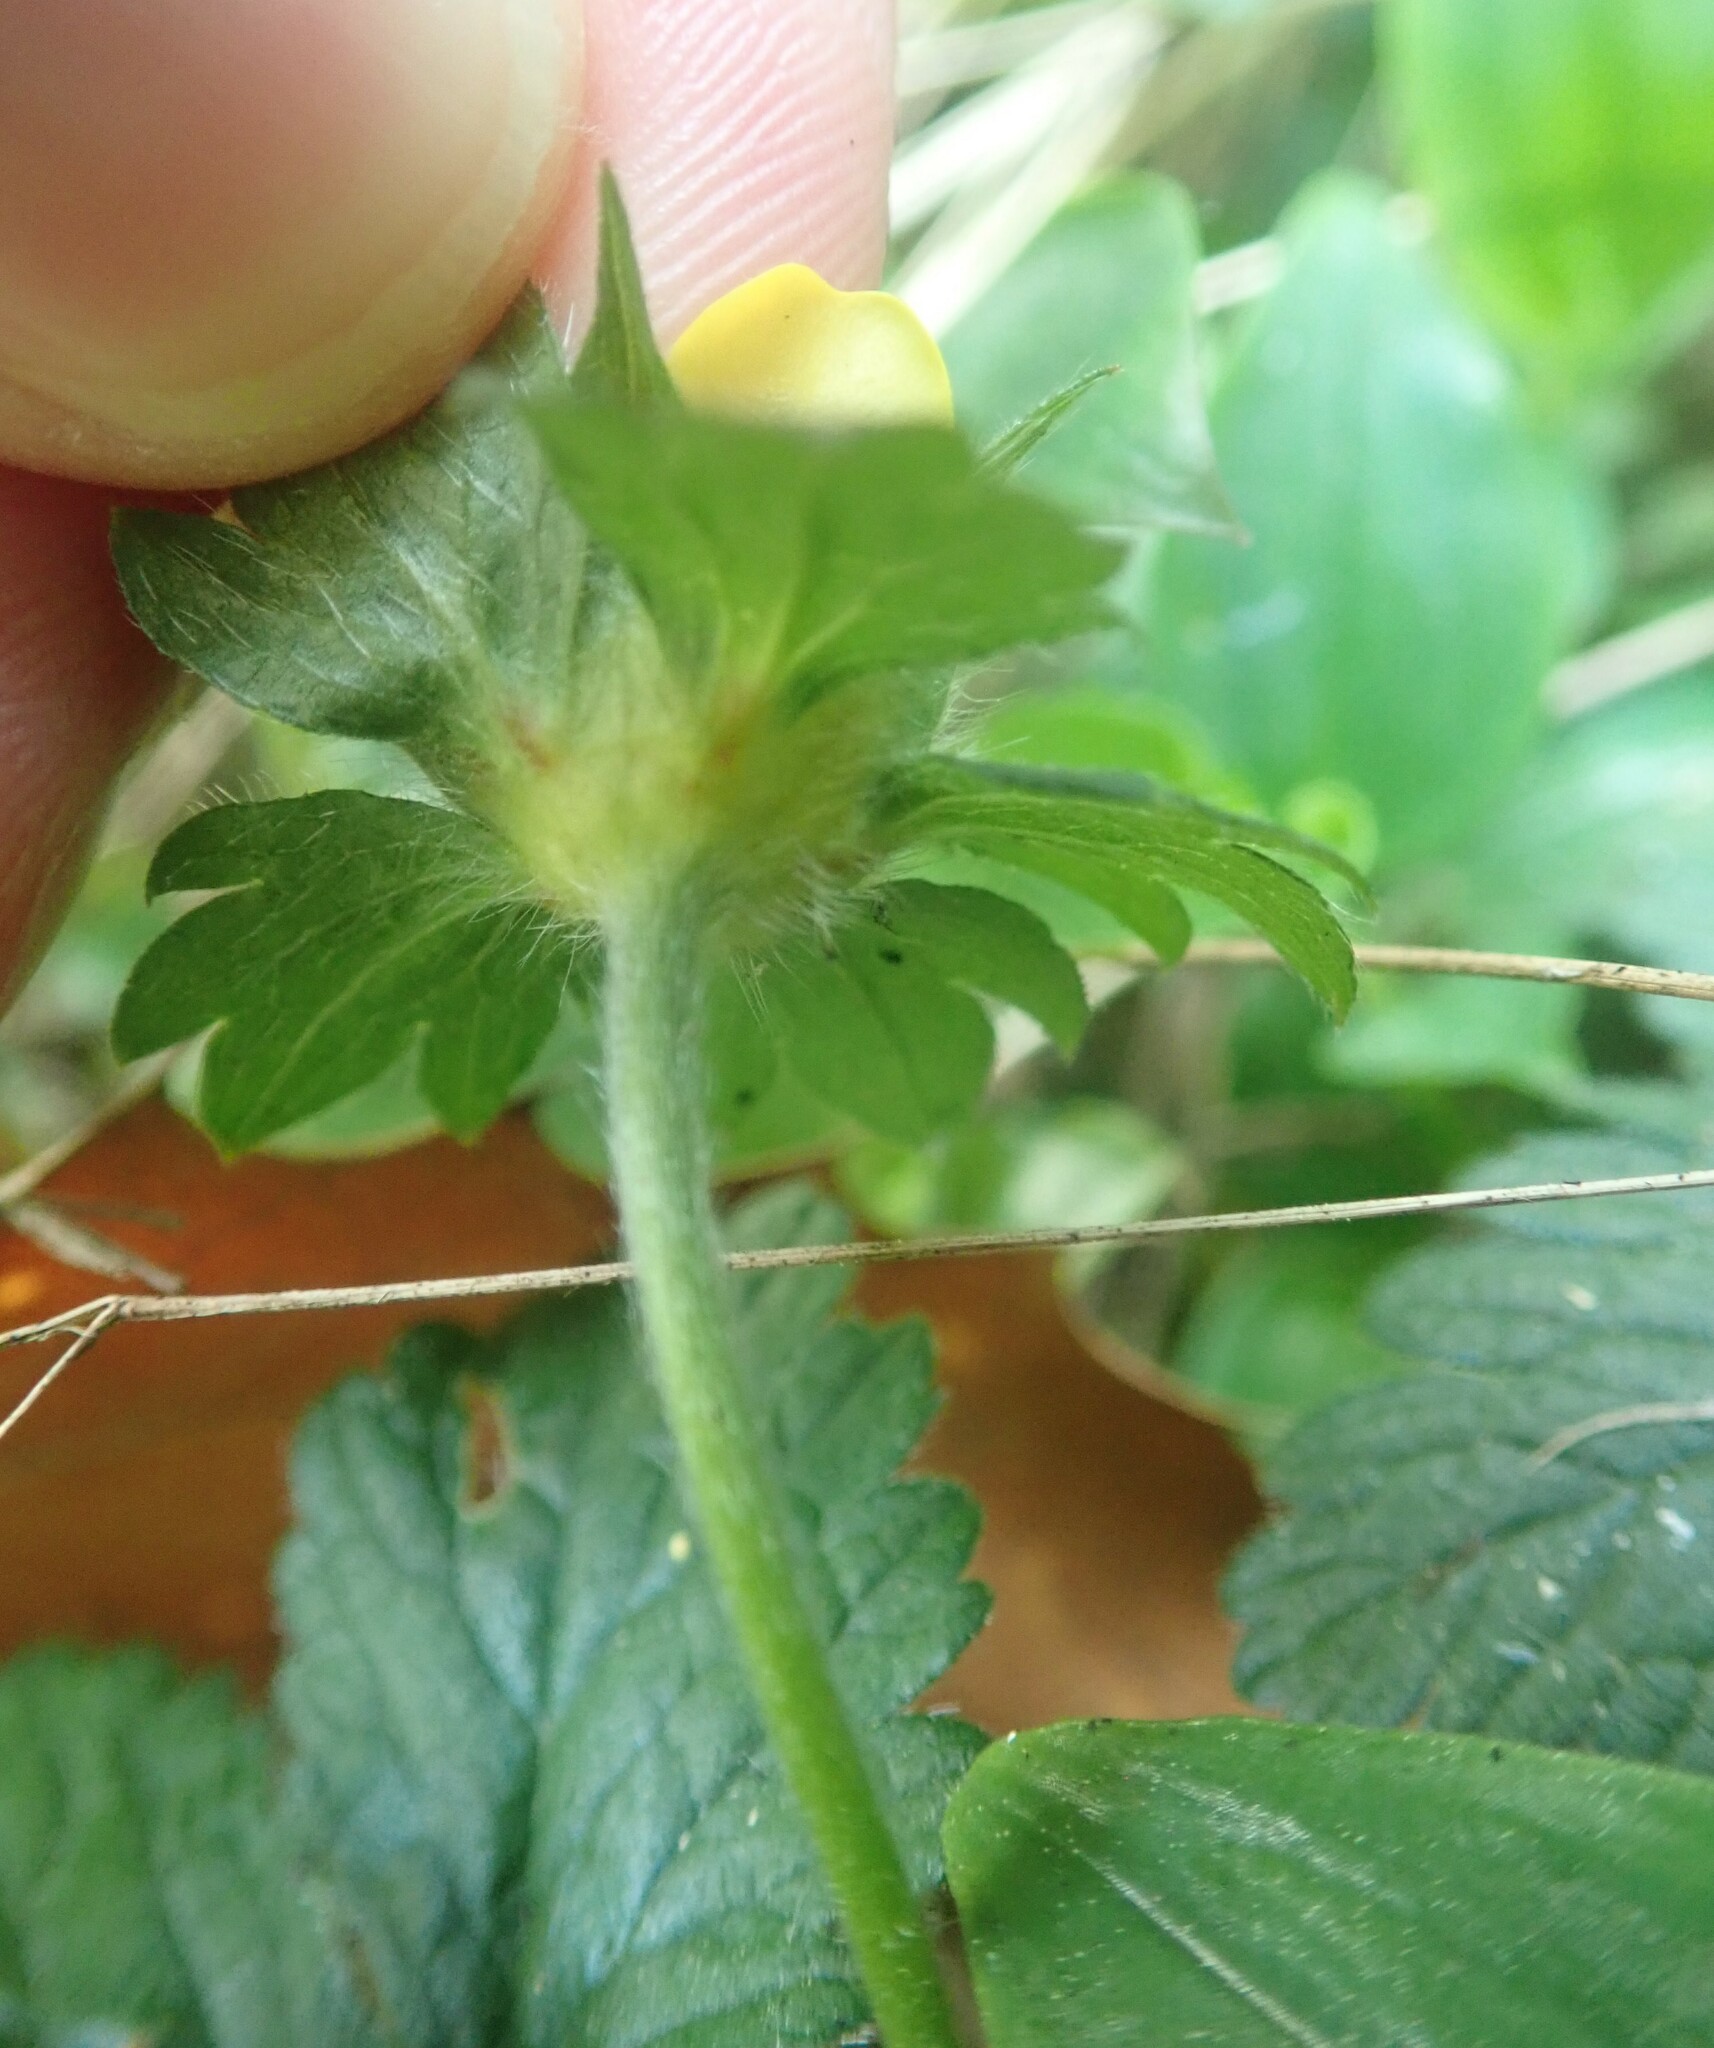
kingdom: Plantae
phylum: Tracheophyta
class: Magnoliopsida
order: Rosales
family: Rosaceae
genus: Potentilla
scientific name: Potentilla indica
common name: Yellow-flowered strawberry
